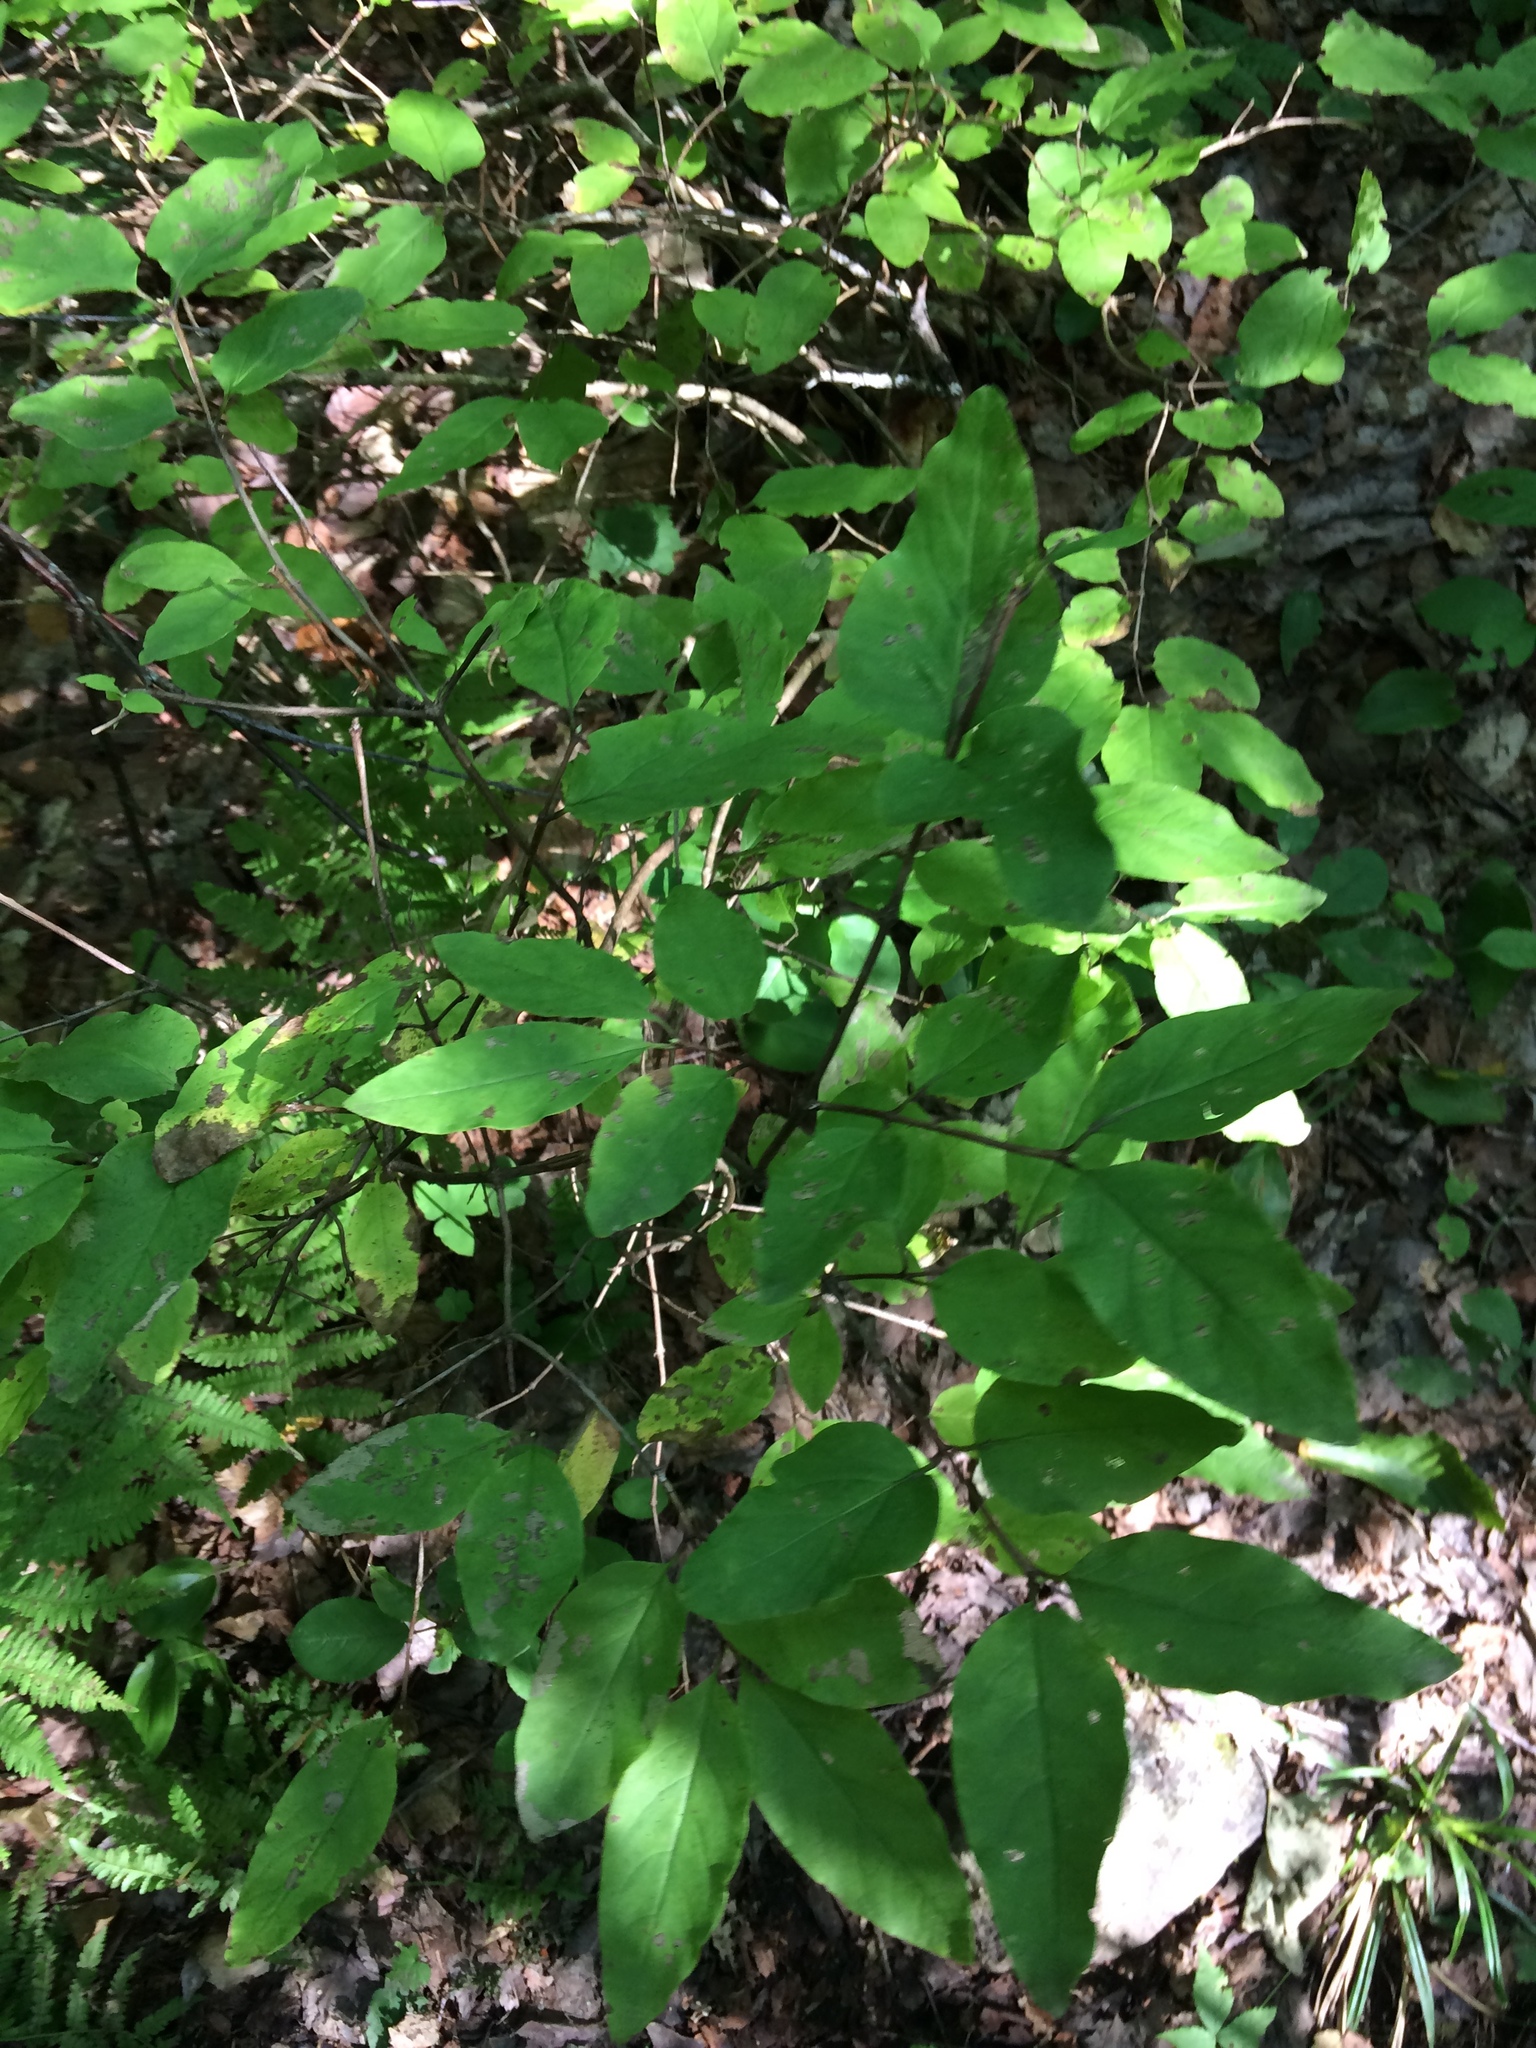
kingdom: Plantae
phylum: Tracheophyta
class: Magnoliopsida
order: Dipsacales
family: Caprifoliaceae
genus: Lonicera
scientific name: Lonicera canadensis
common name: American fly-honeysuckle
